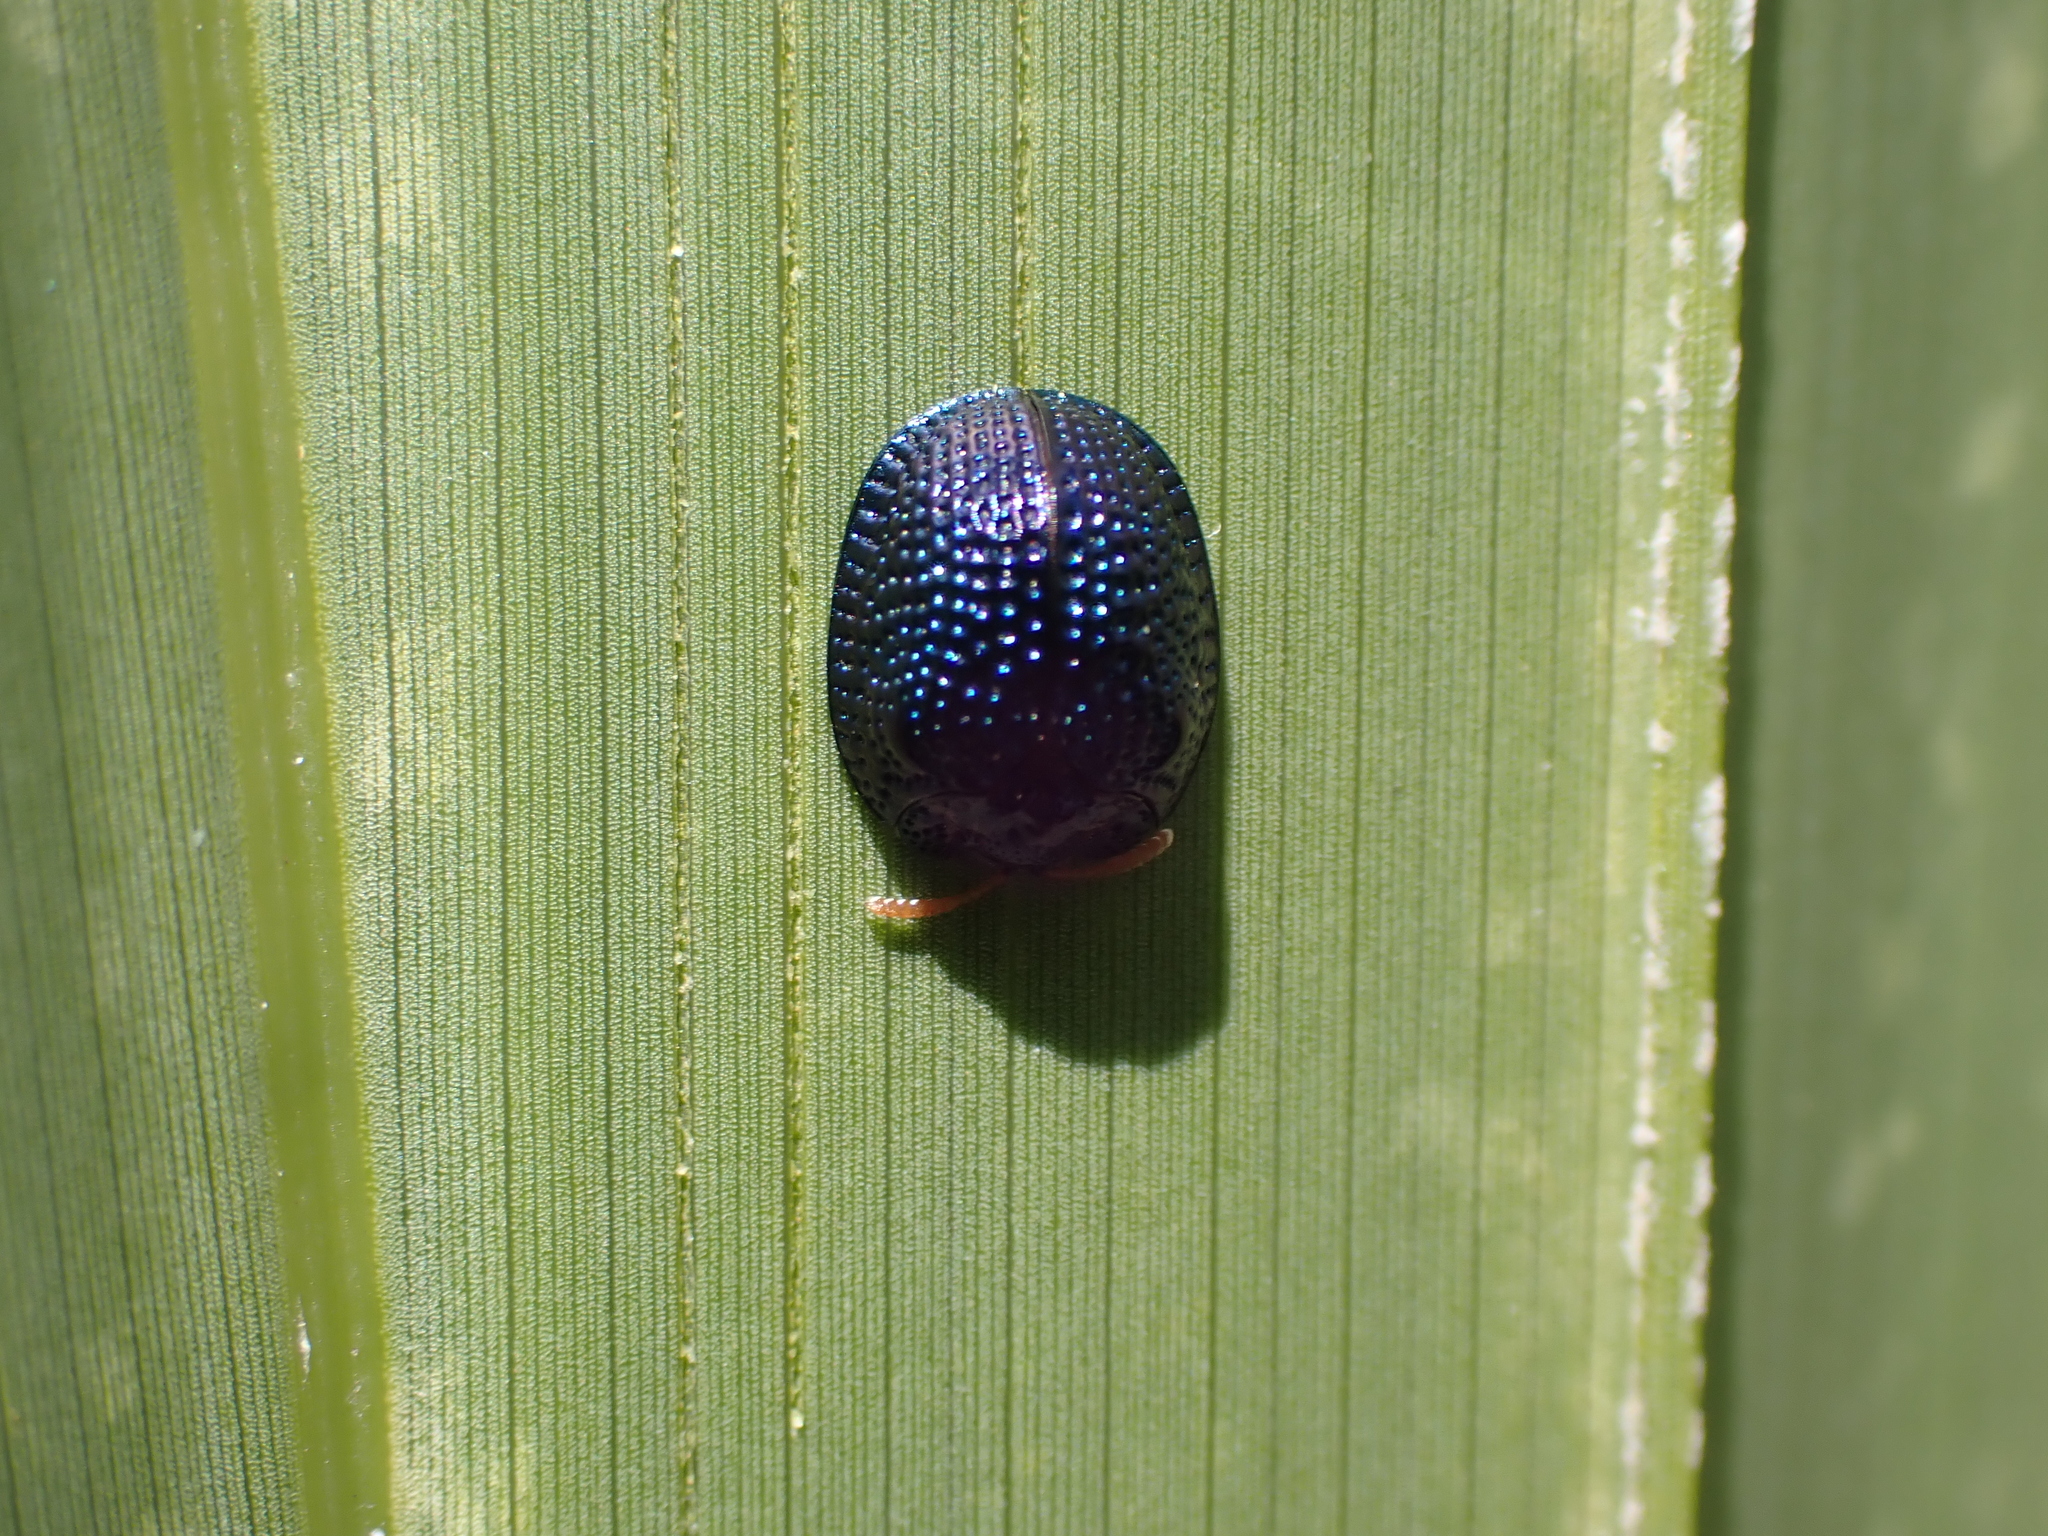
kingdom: Animalia
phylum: Arthropoda
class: Insecta
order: Coleoptera
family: Chrysomelidae
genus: Hemisphaerota
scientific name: Hemisphaerota cyanea
